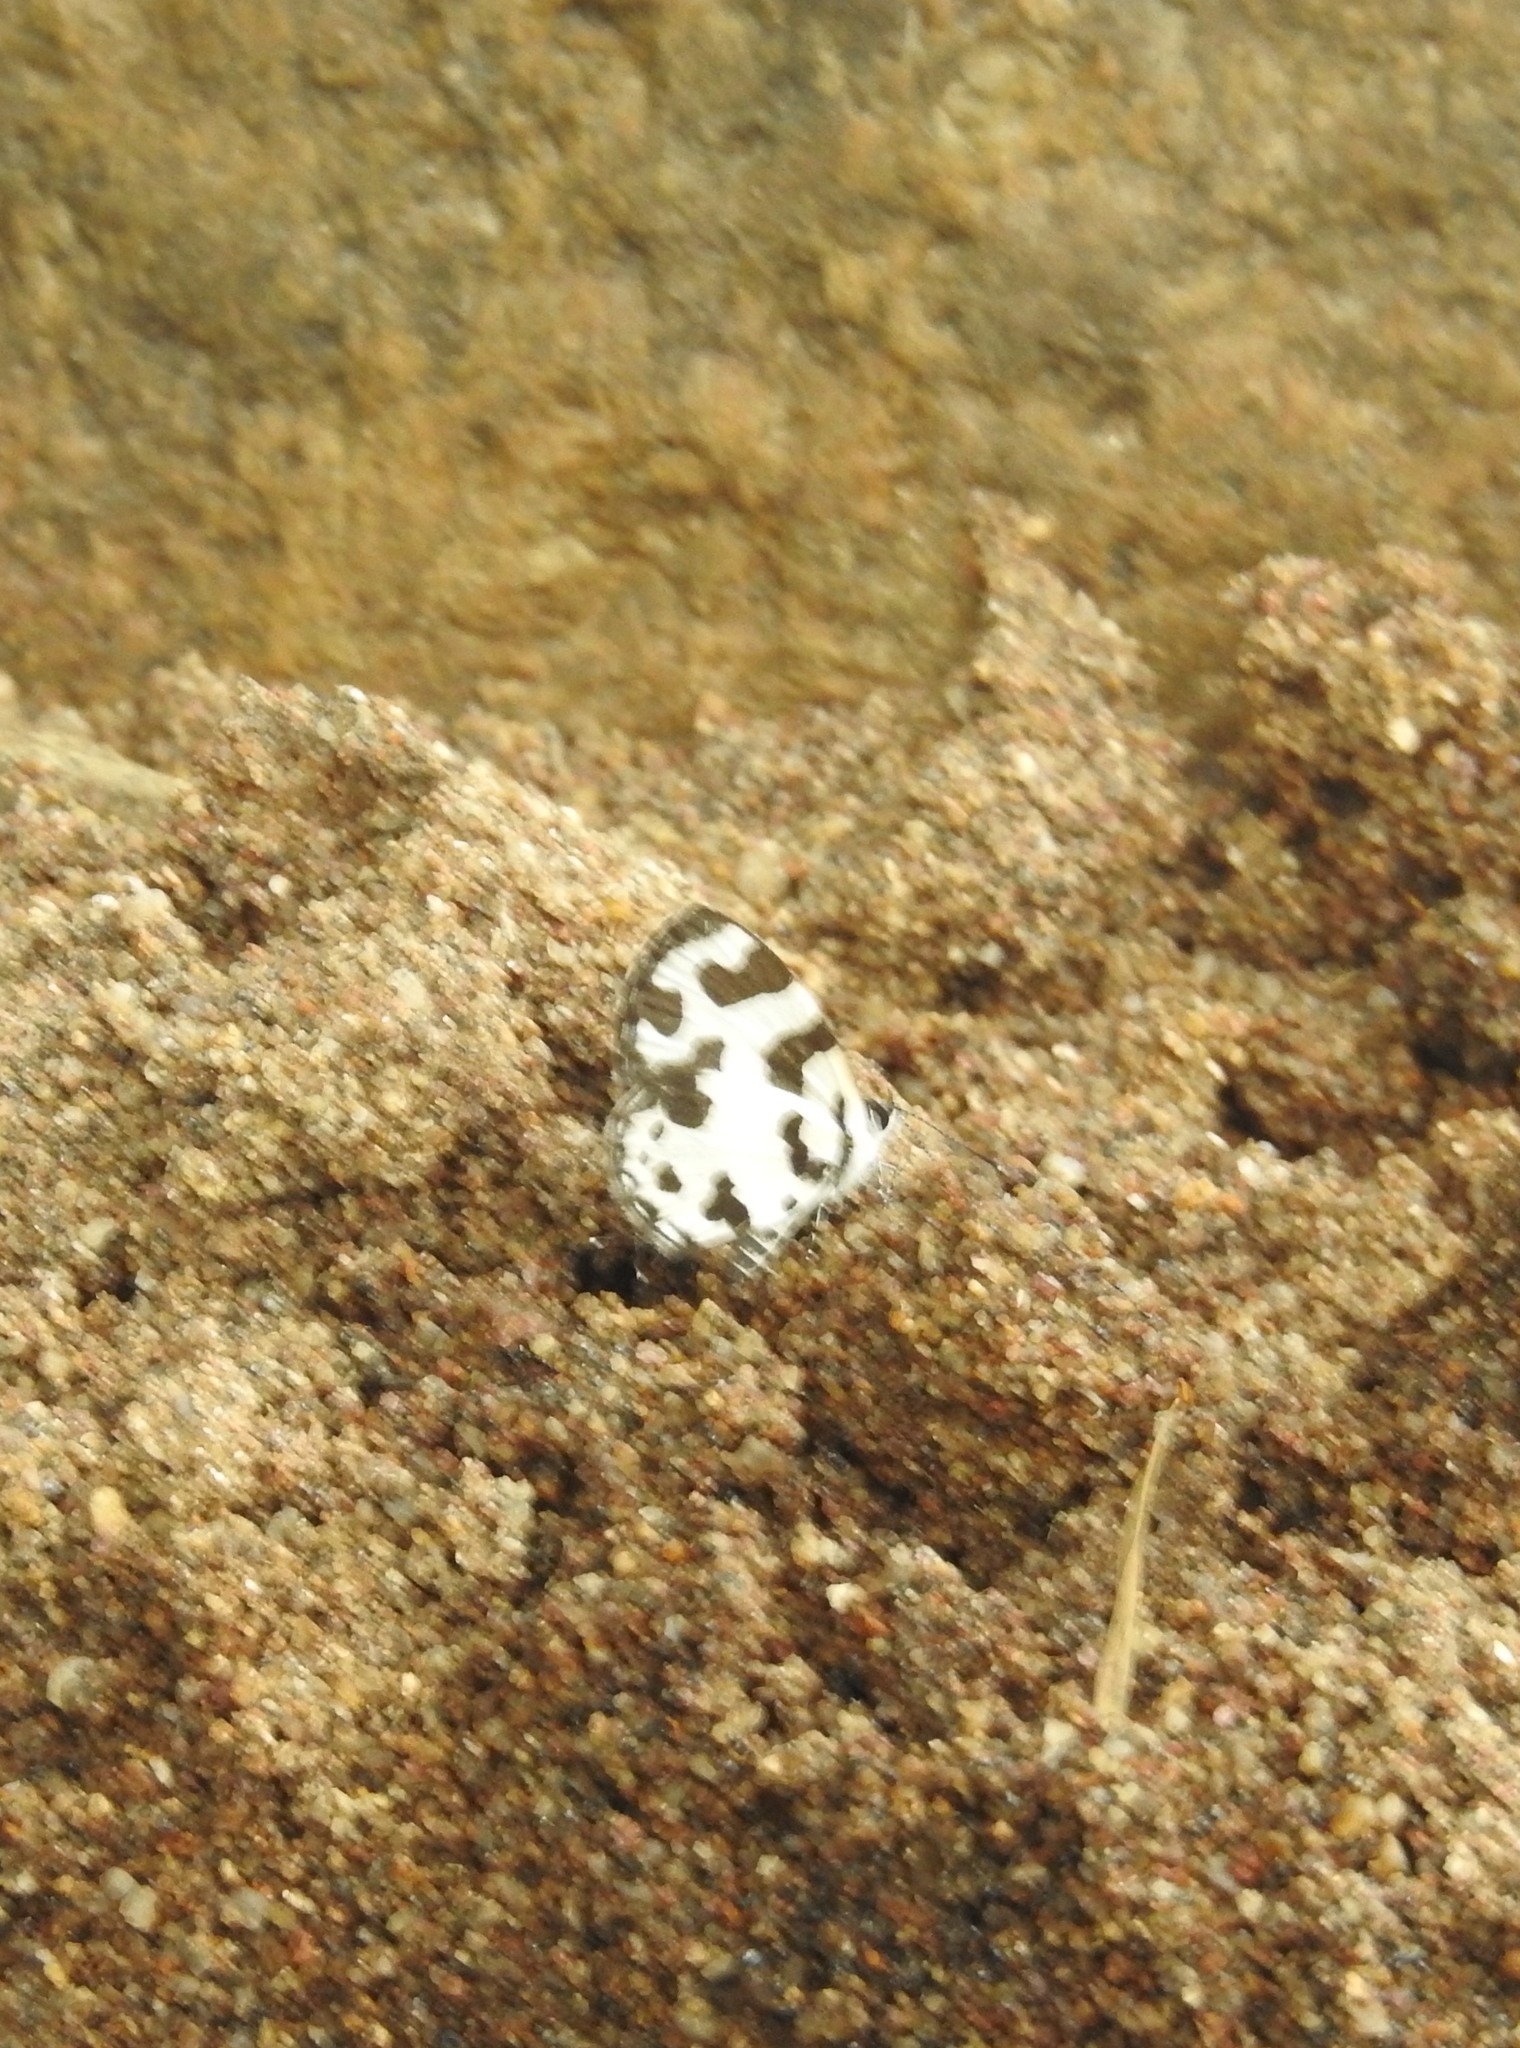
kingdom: Animalia
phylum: Arthropoda
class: Insecta
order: Lepidoptera
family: Lycaenidae
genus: Caleta
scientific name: Caleta decidia
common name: Angled pierrot
